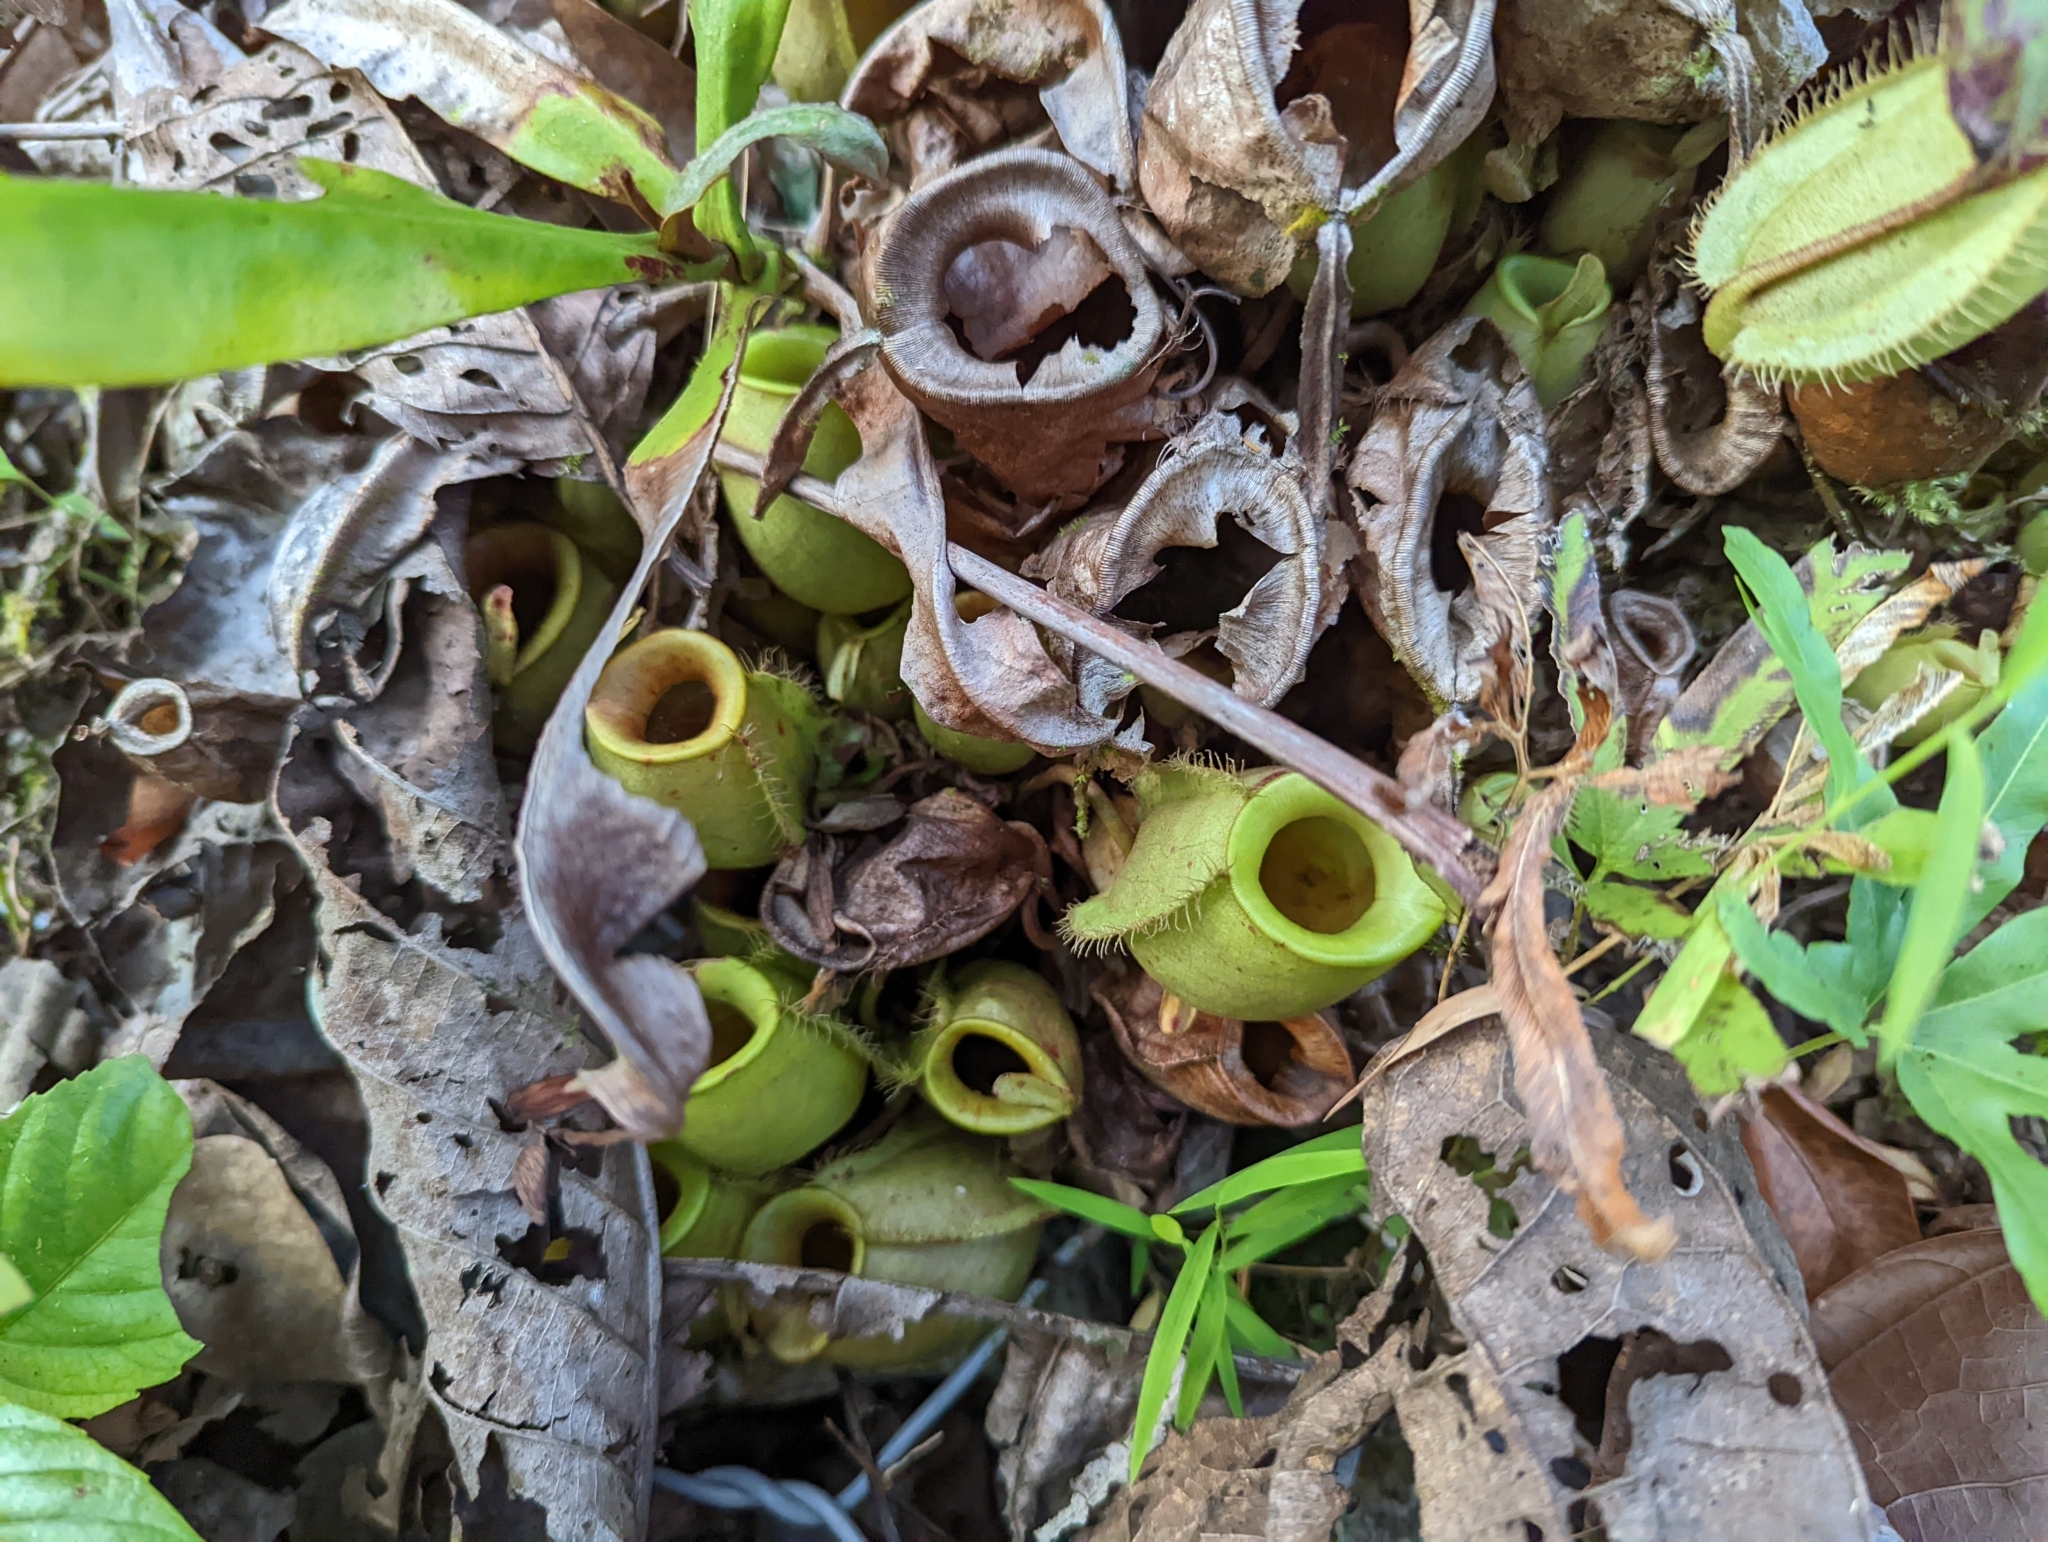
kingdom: Plantae
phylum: Tracheophyta
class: Magnoliopsida
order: Caryophyllales
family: Nepenthaceae
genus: Nepenthes
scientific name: Nepenthes ampullaria
